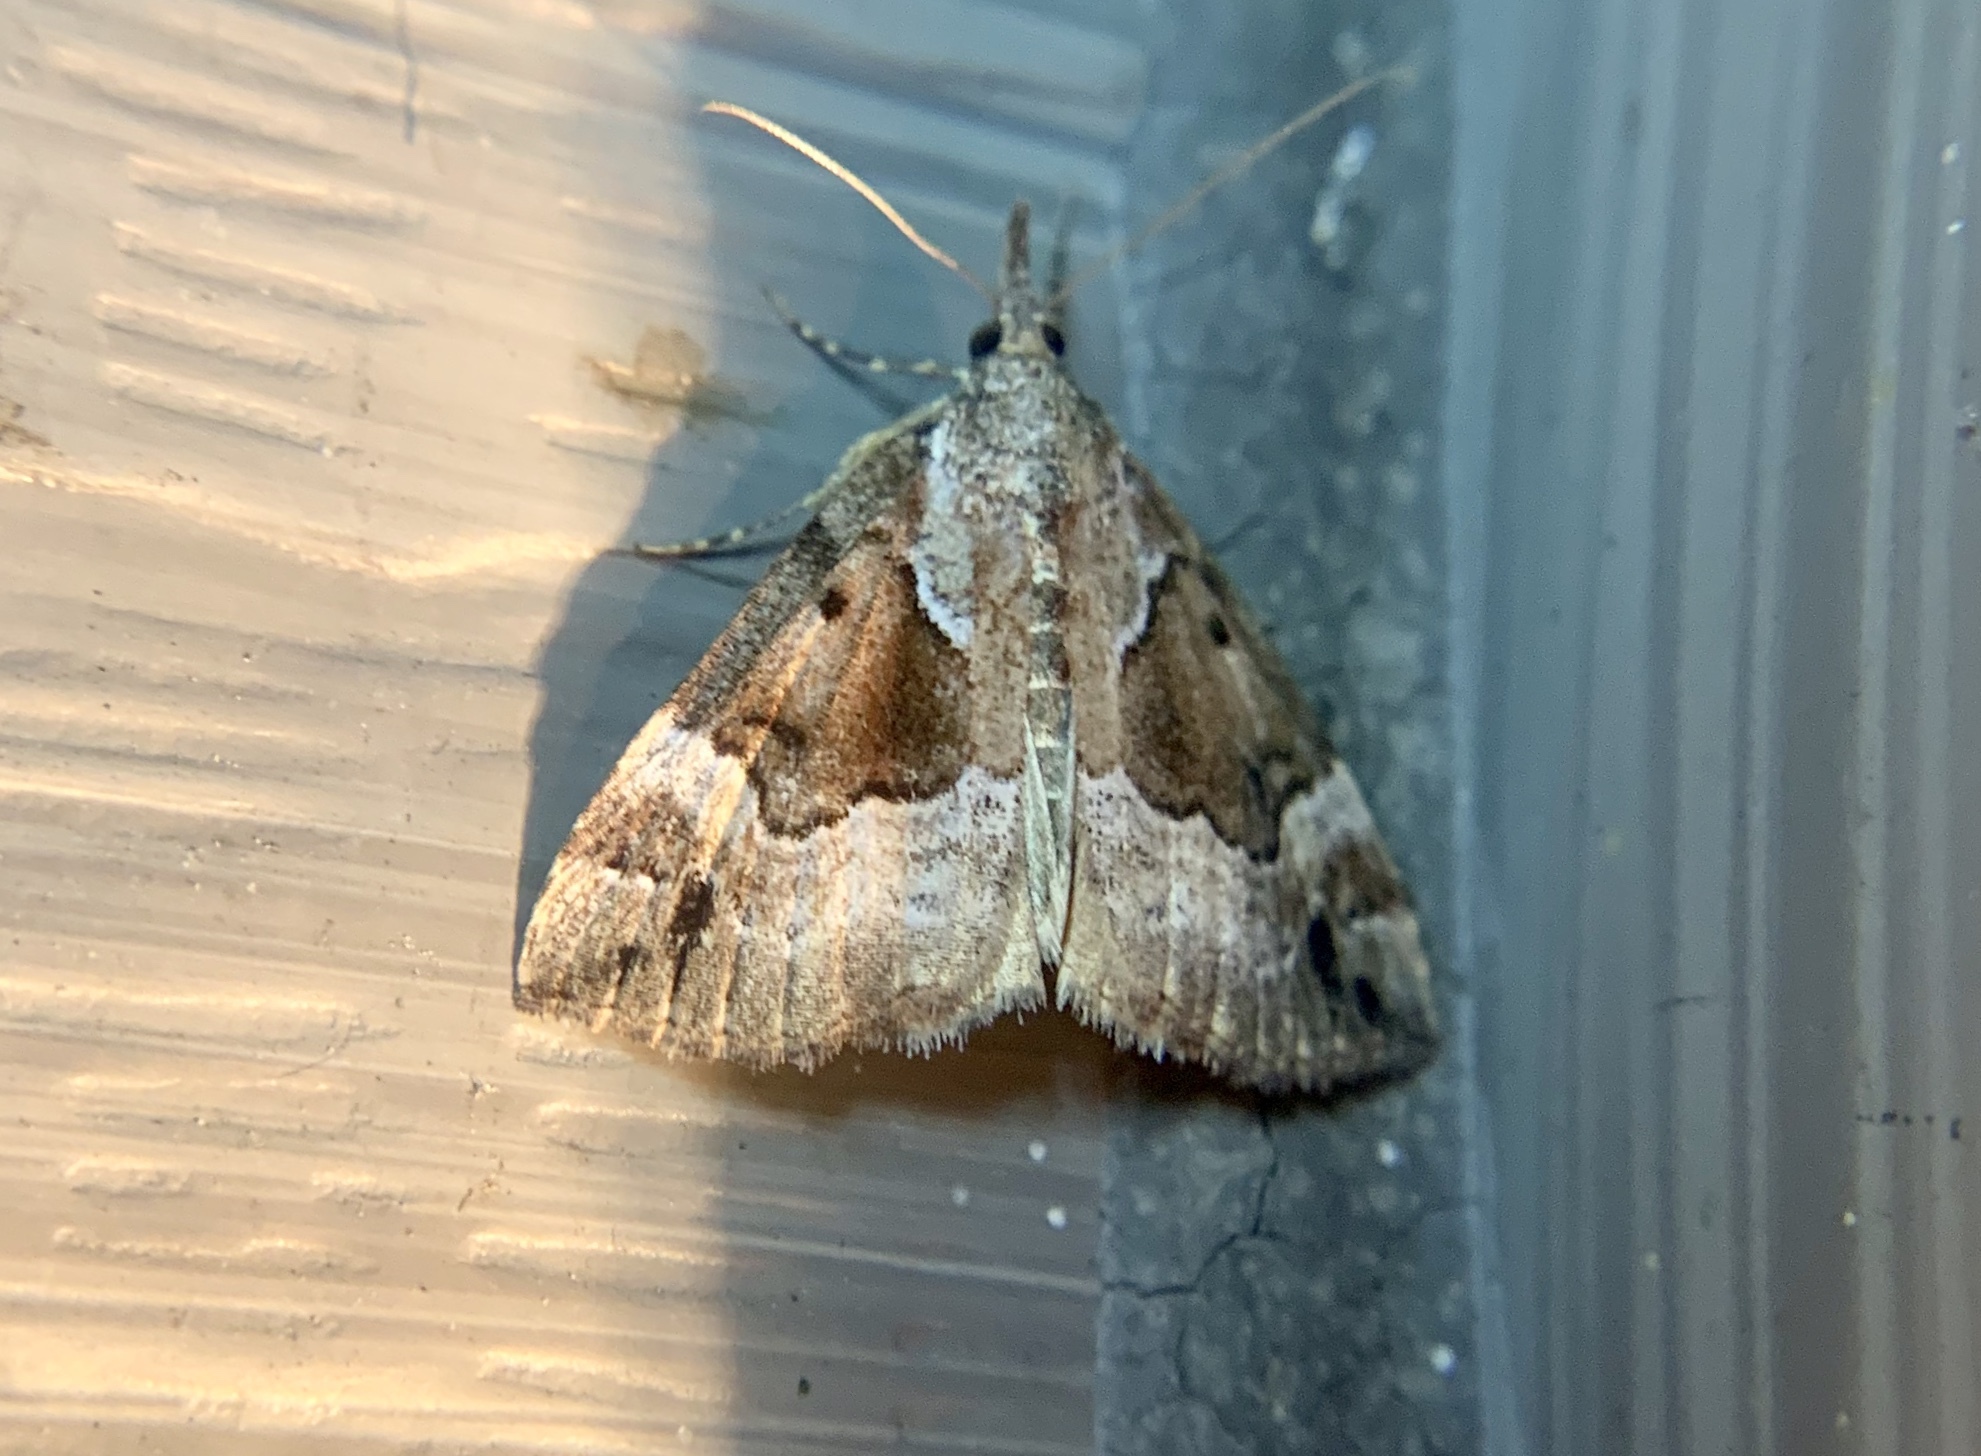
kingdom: Animalia
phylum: Arthropoda
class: Insecta
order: Lepidoptera
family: Erebidae
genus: Hypena
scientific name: Hypena palparia
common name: Mottled bomolocha moth
